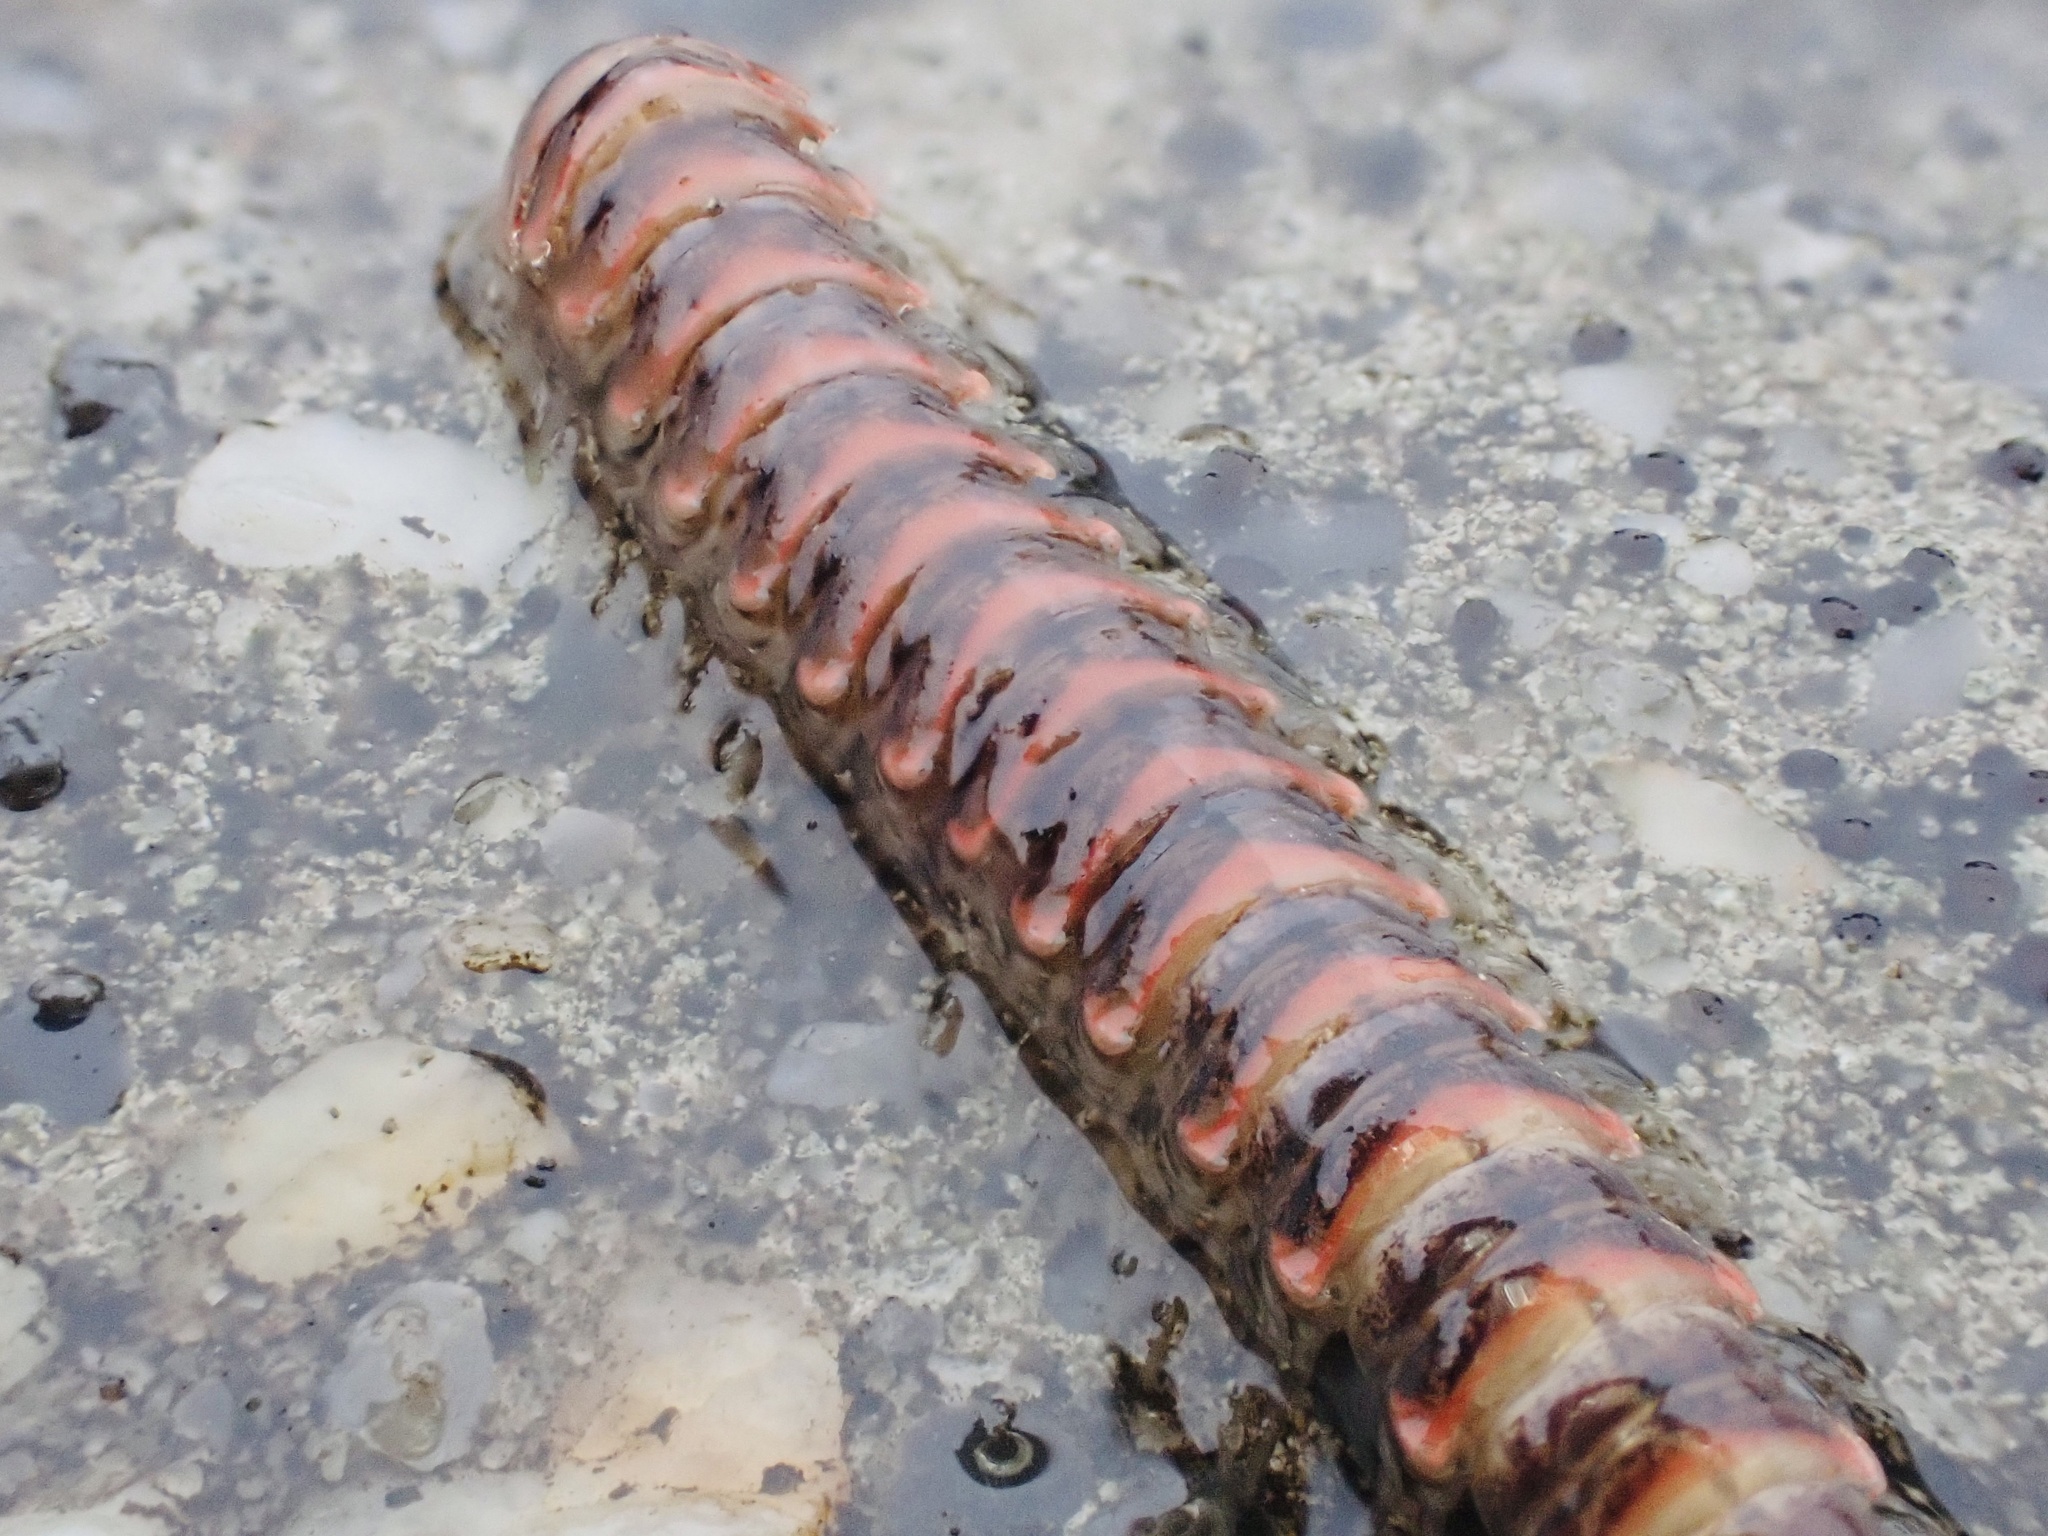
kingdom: Animalia
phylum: Arthropoda
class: Diplopoda
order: Polydesmida
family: Xystodesmidae
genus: Oenomaea
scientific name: Oenomaea pulchella
